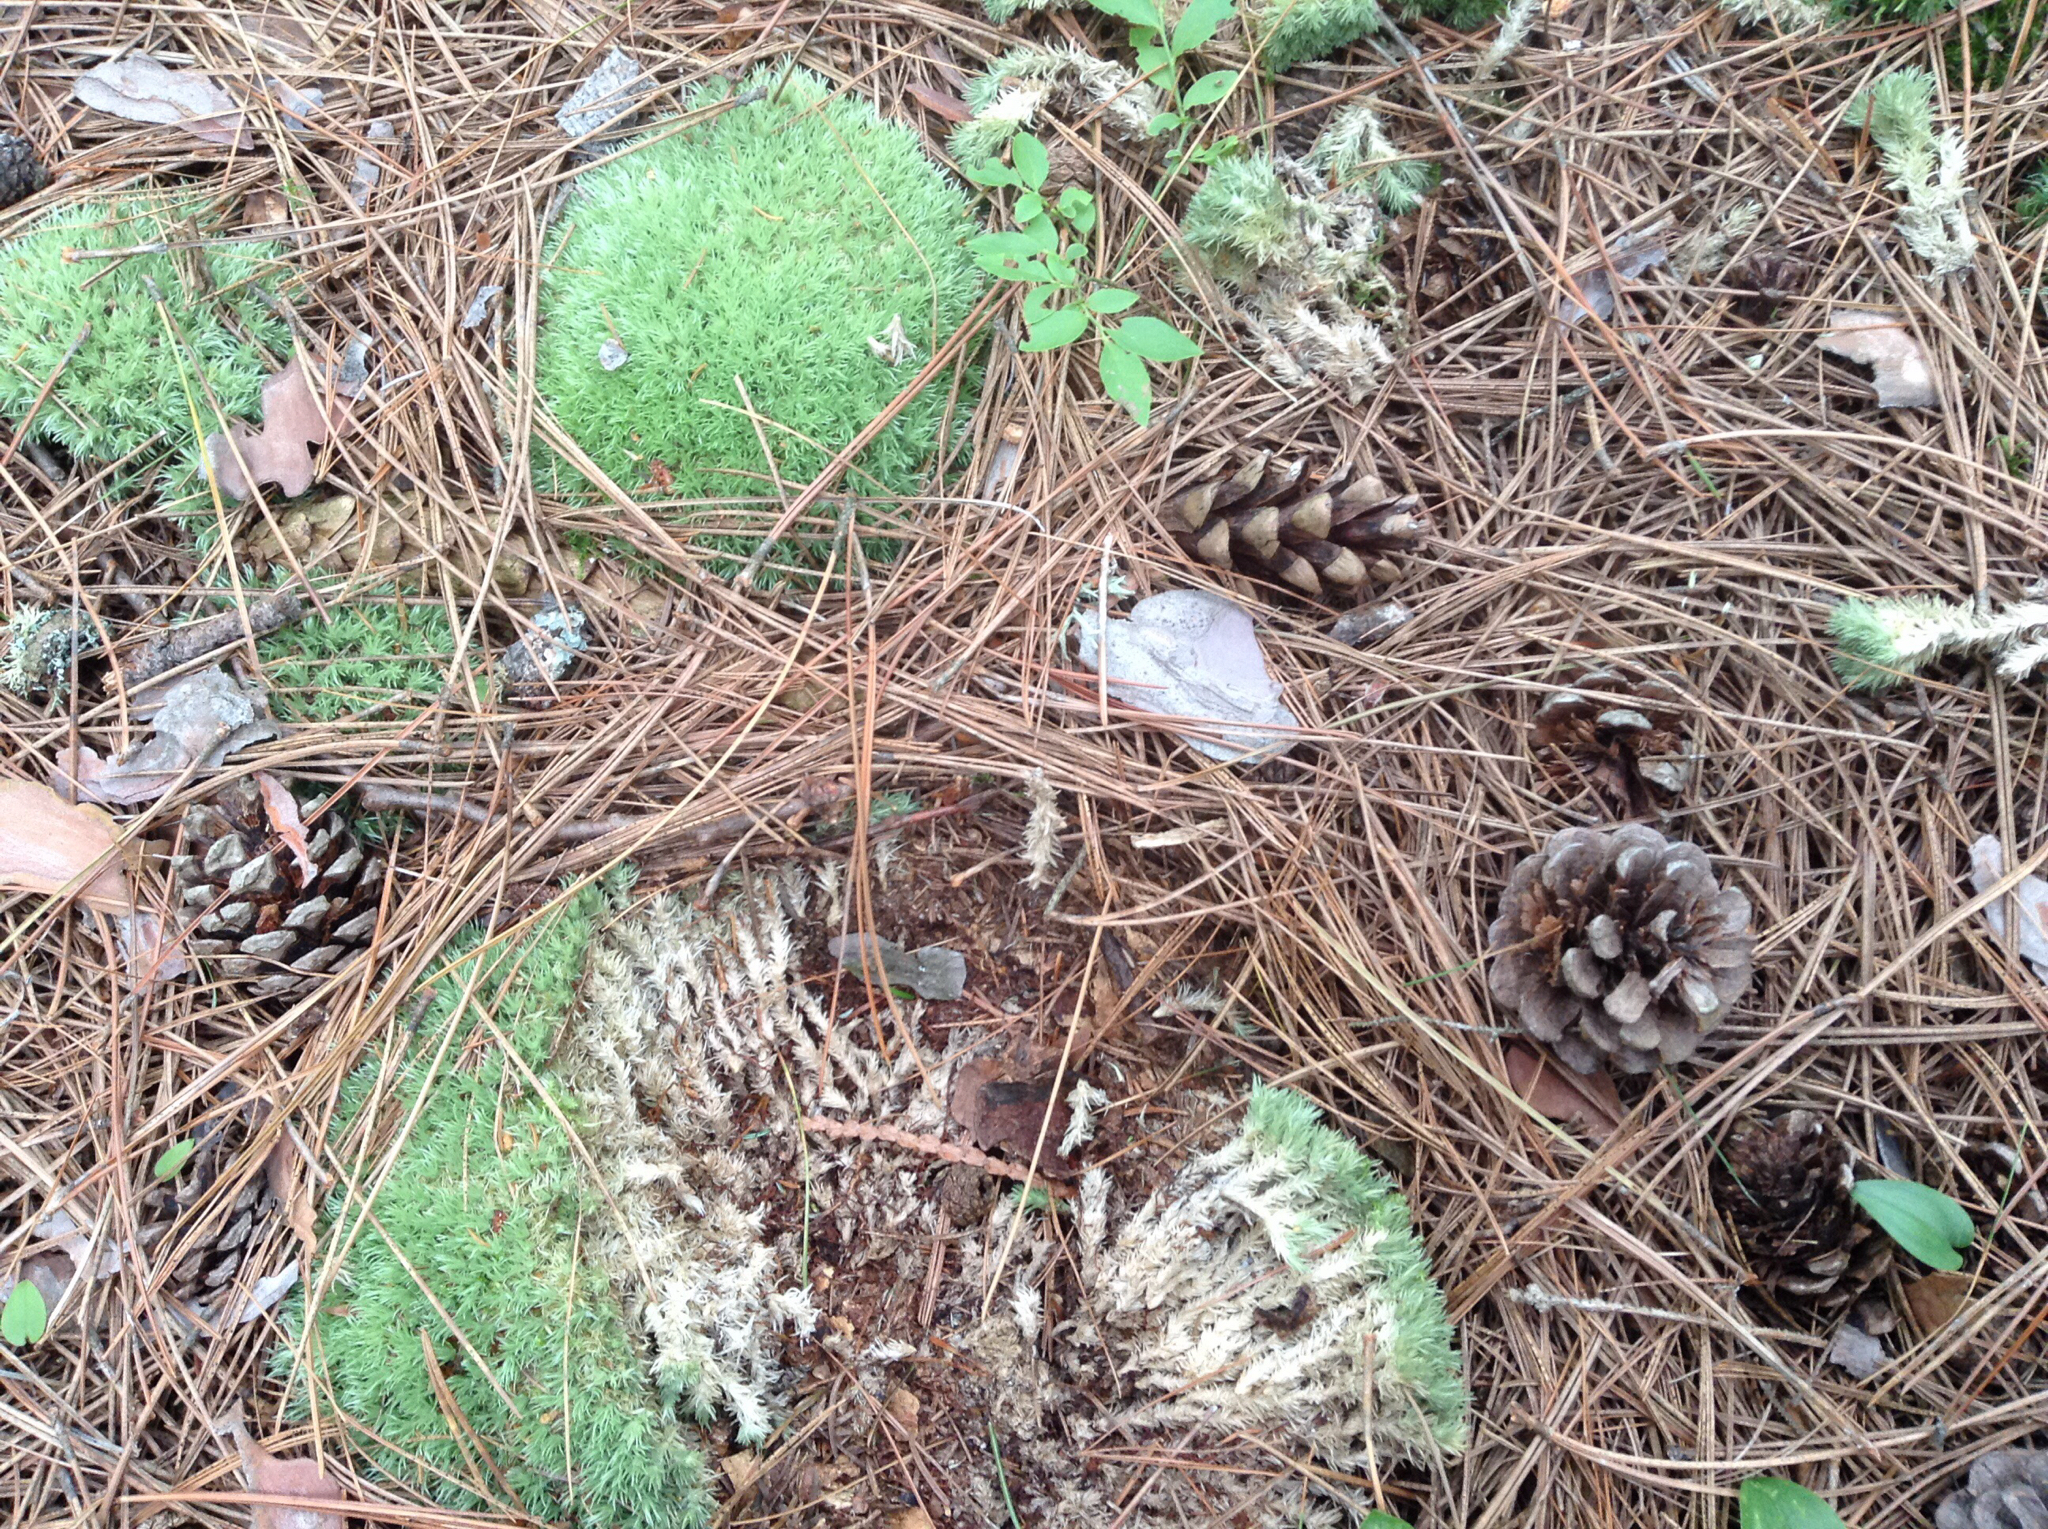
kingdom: Plantae
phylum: Bryophyta
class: Bryopsida
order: Dicranales
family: Leucobryaceae
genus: Leucobryum
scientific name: Leucobryum glaucum
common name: Large white-moss
